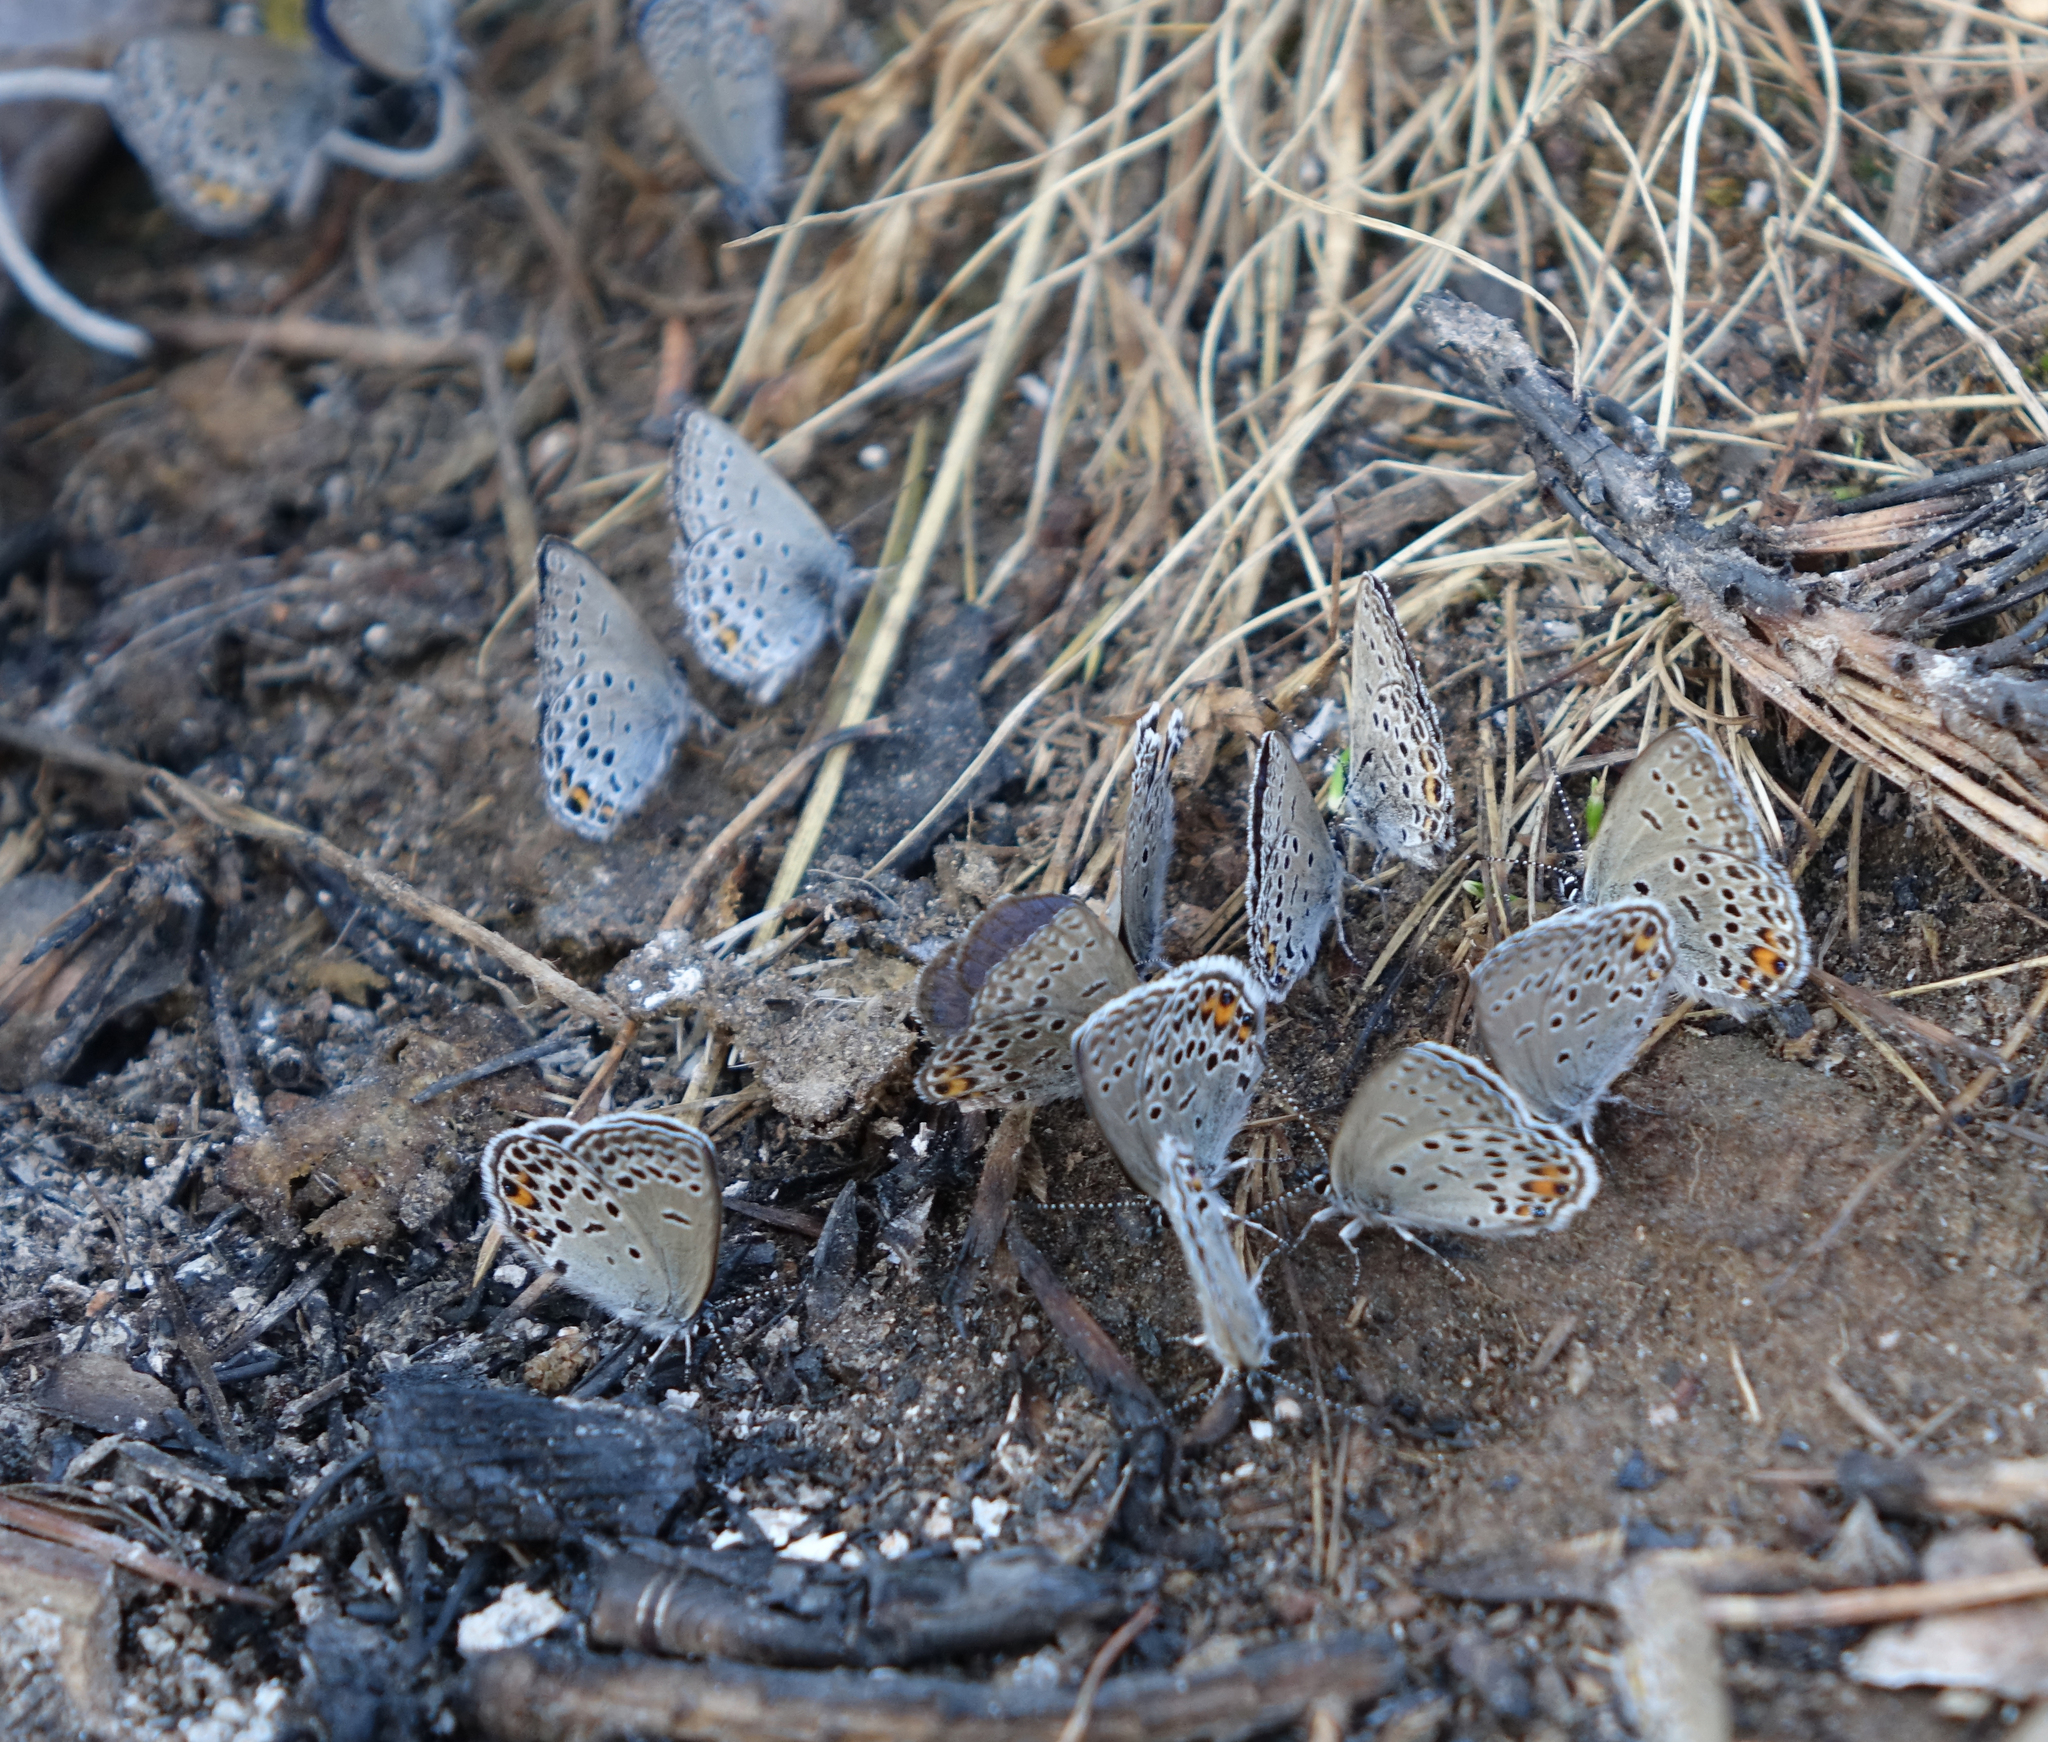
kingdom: Animalia
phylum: Arthropoda
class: Insecta
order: Lepidoptera
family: Lycaenidae
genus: Vacciniina
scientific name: Vacciniina optilete
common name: Cranberry blue
